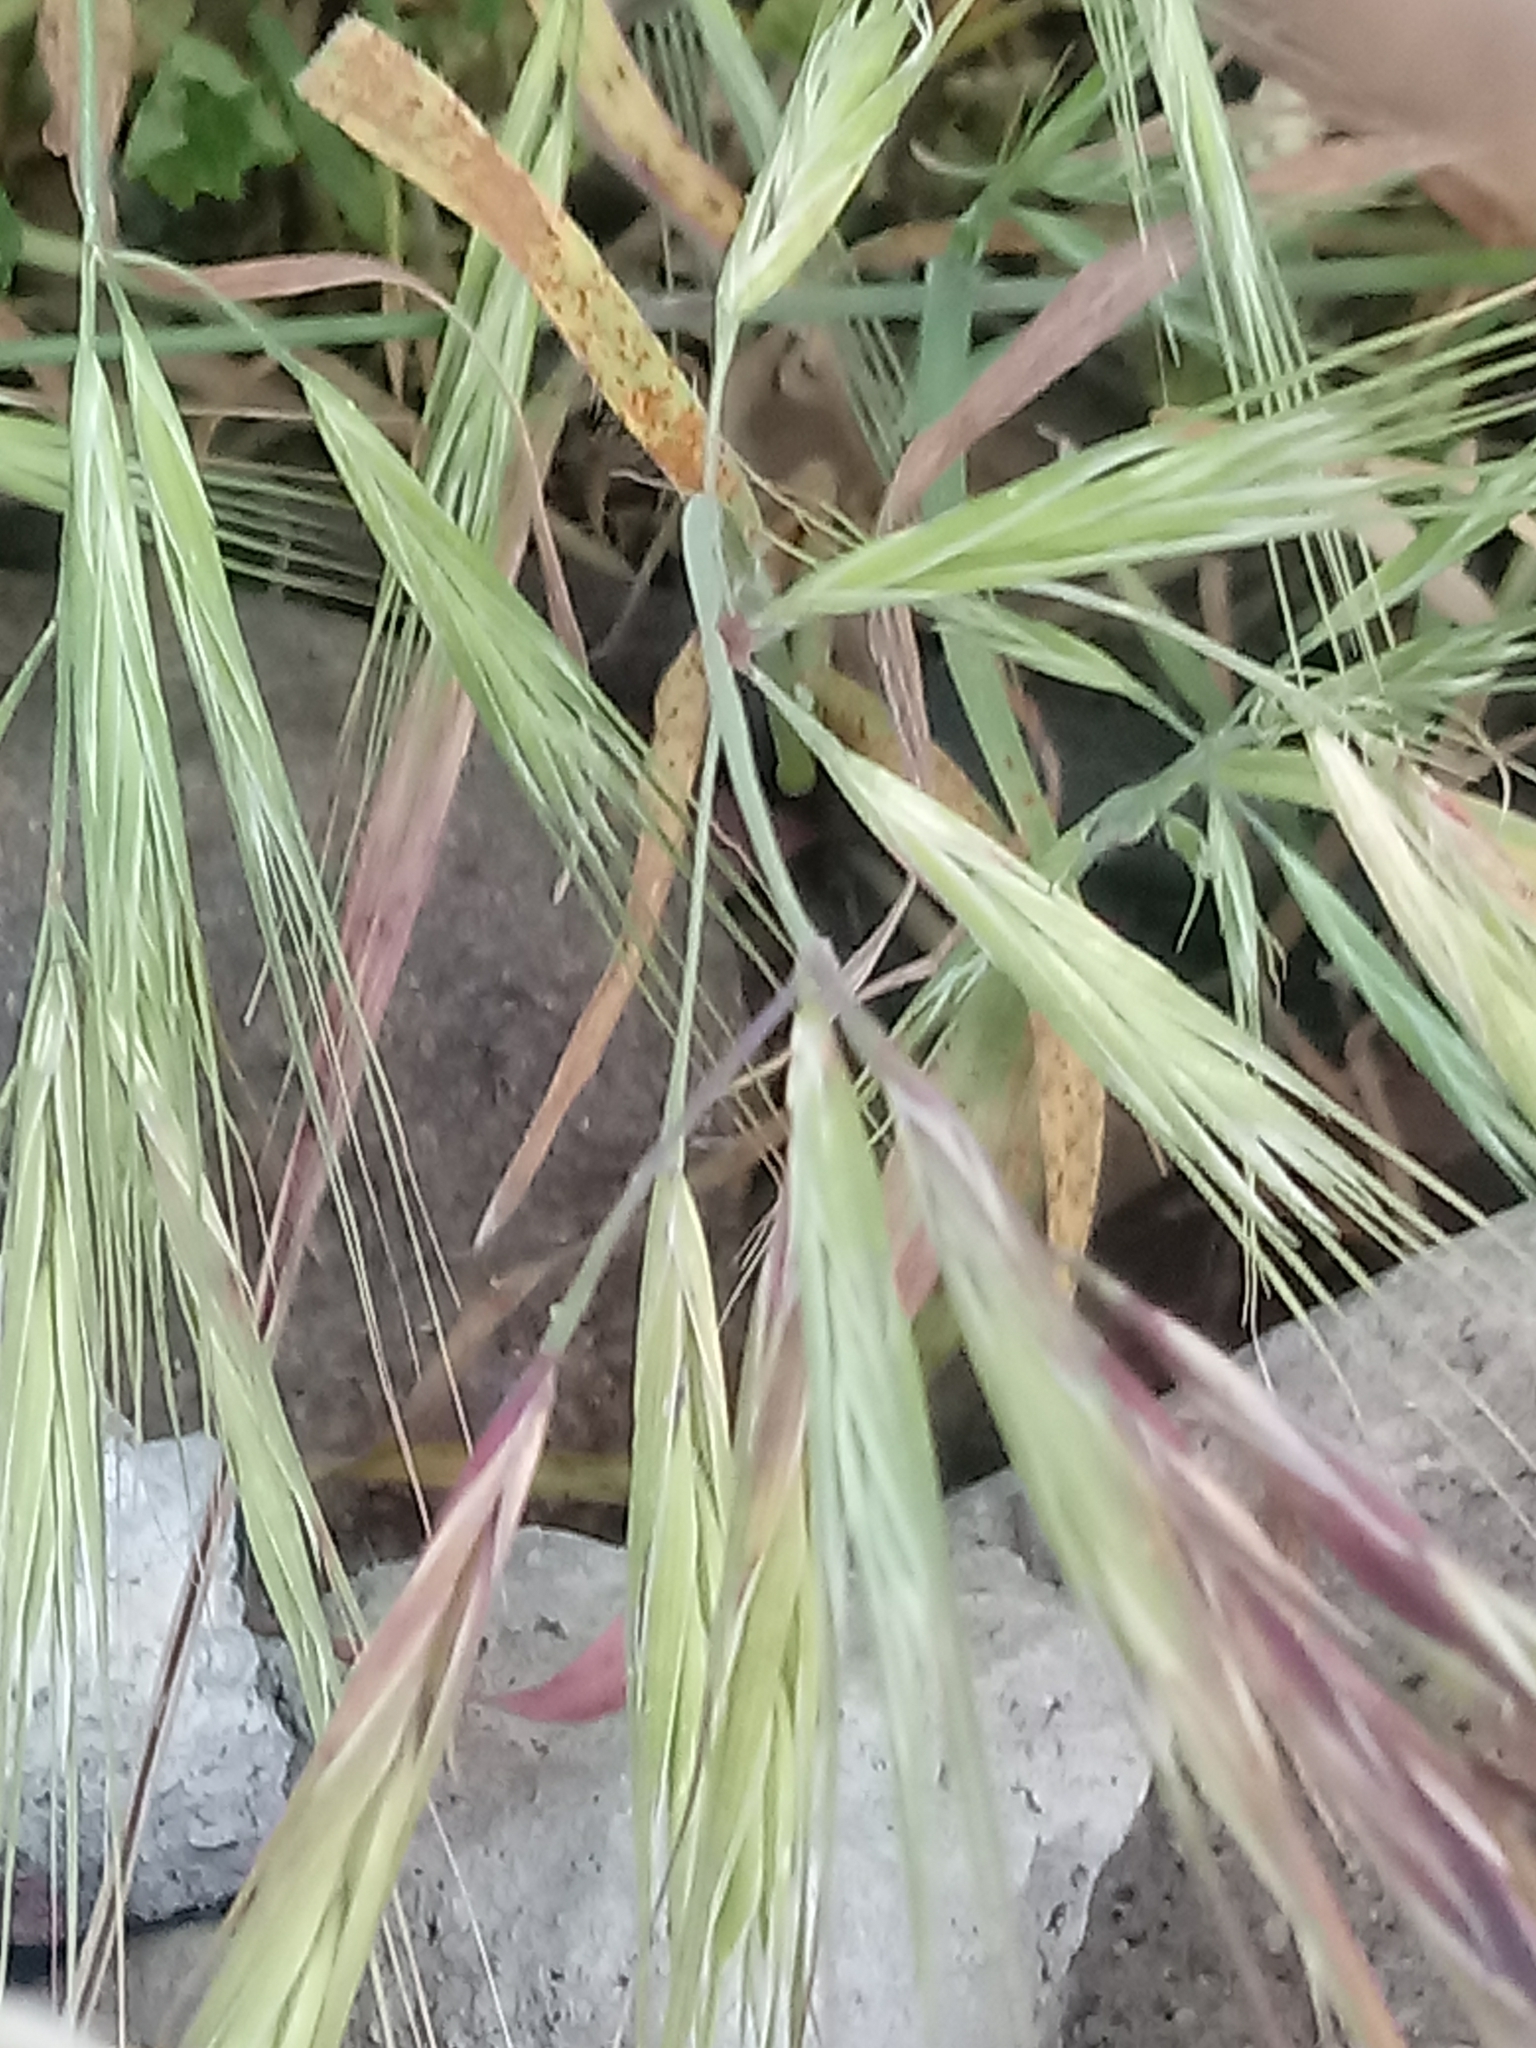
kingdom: Plantae
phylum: Tracheophyta
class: Liliopsida
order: Poales
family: Poaceae
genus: Bromus
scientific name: Bromus diandrus
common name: Ripgut brome
